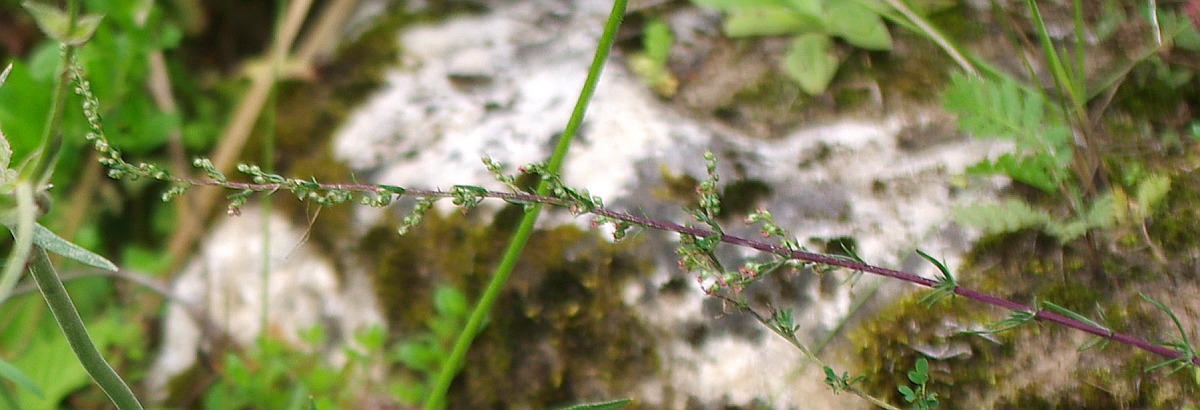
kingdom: Plantae
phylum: Tracheophyta
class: Magnoliopsida
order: Asterales
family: Asteraceae
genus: Artemisia
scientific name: Artemisia campestris
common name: Field wormwood
